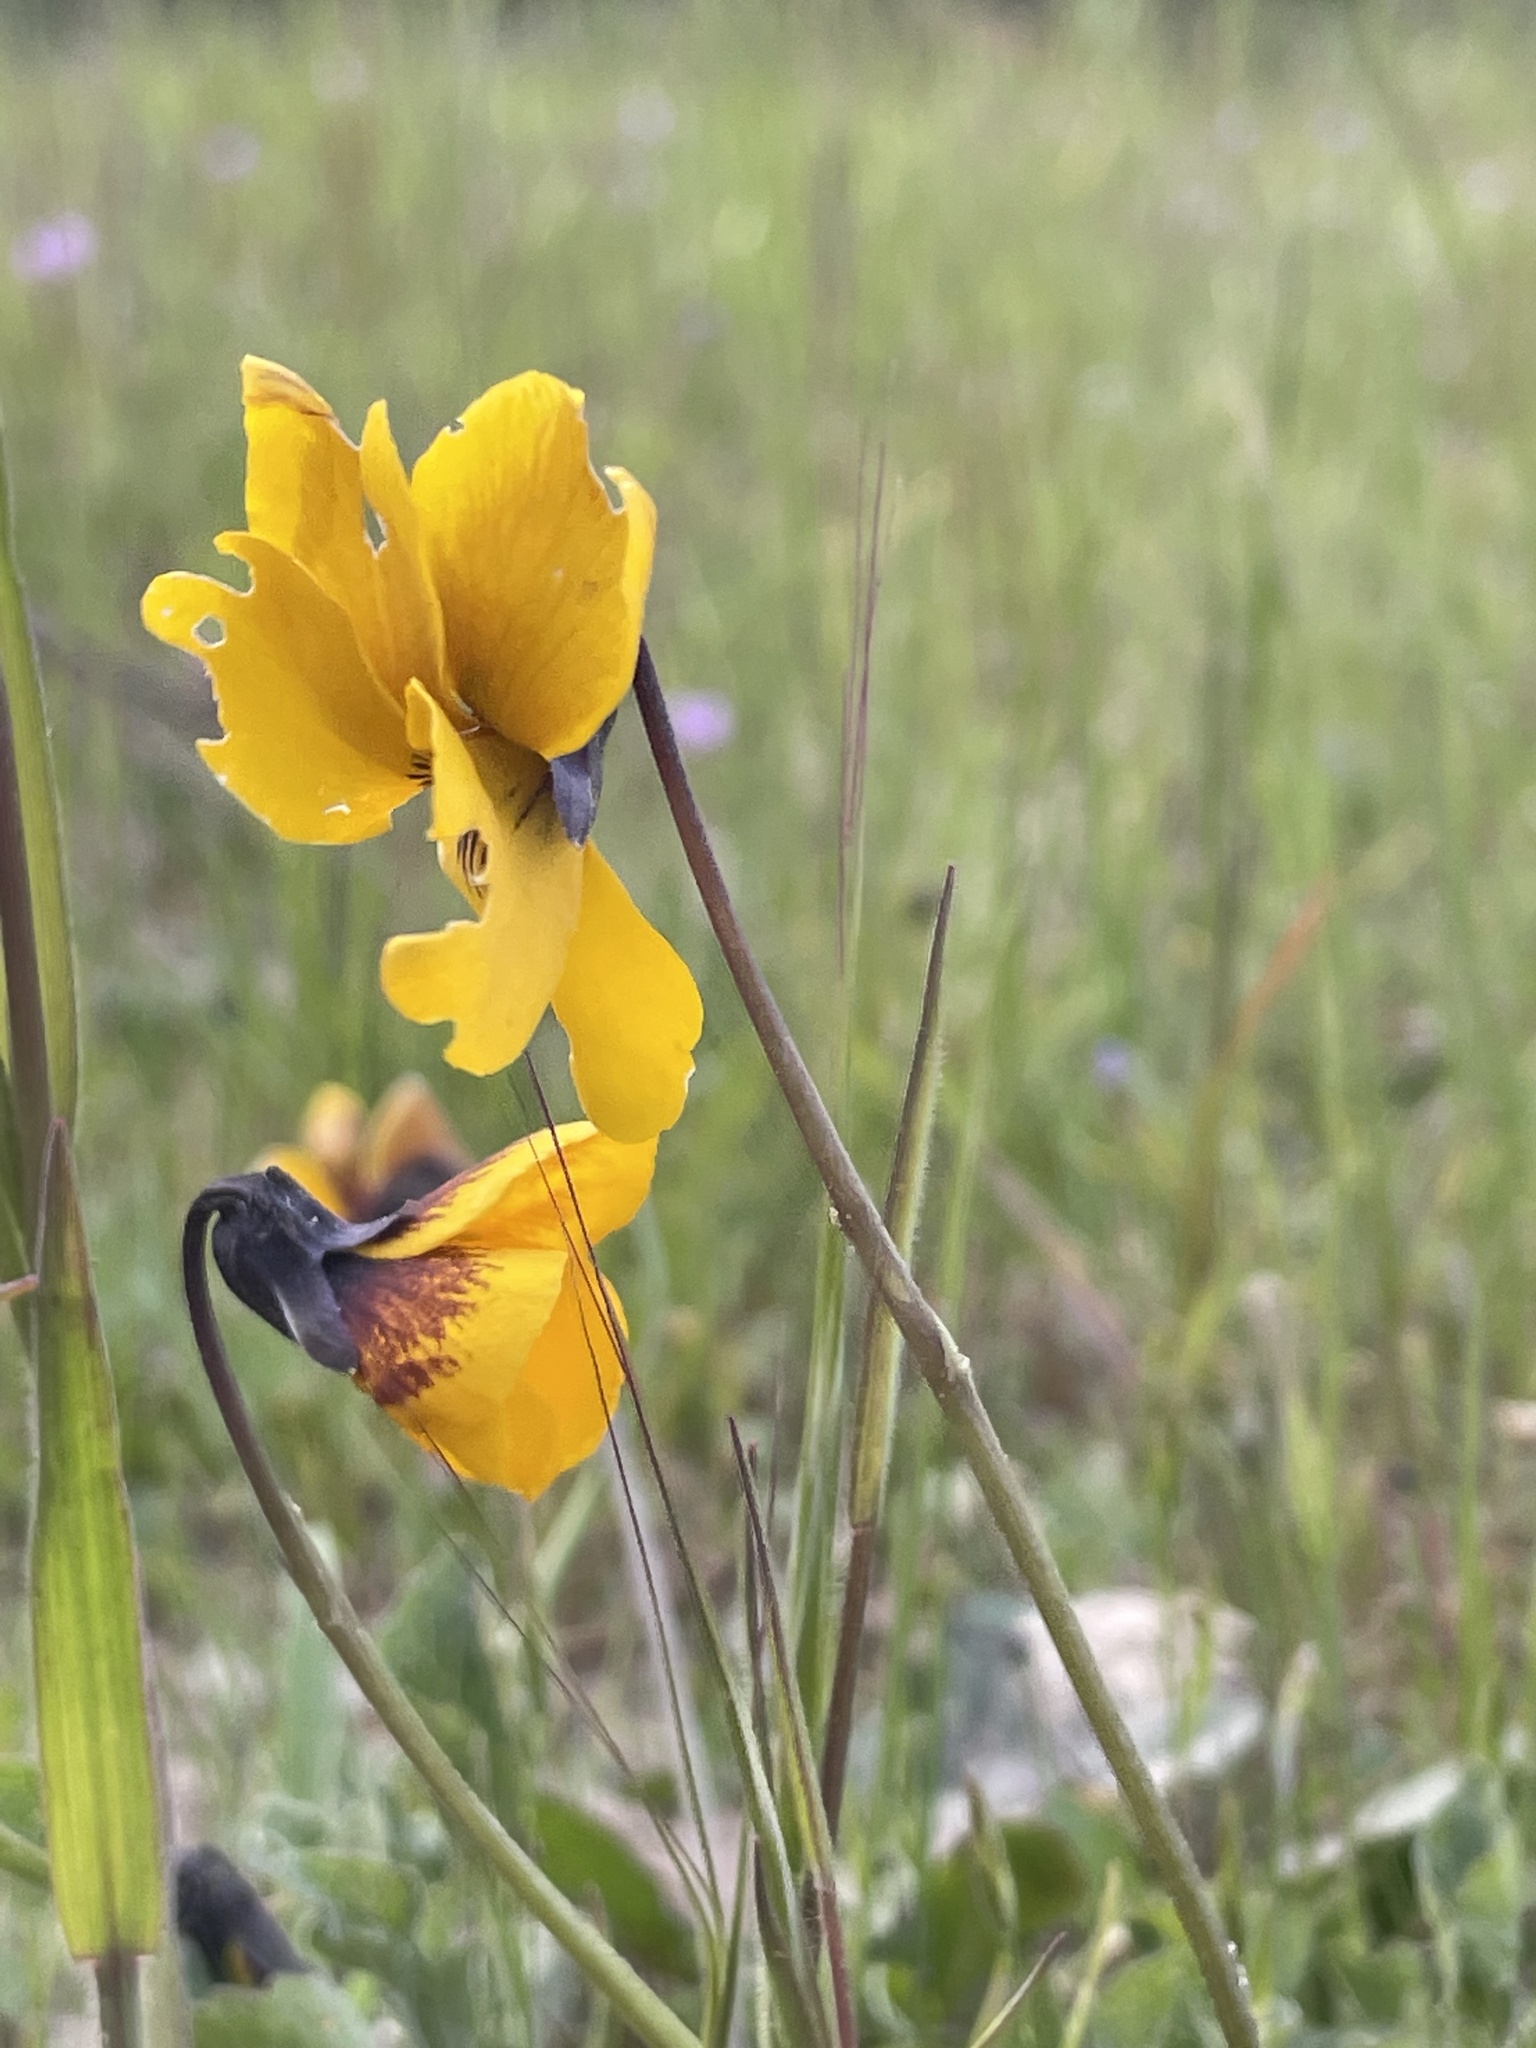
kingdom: Plantae
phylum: Tracheophyta
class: Magnoliopsida
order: Malpighiales
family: Violaceae
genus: Viola
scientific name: Viola pedunculata
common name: California golden violet
